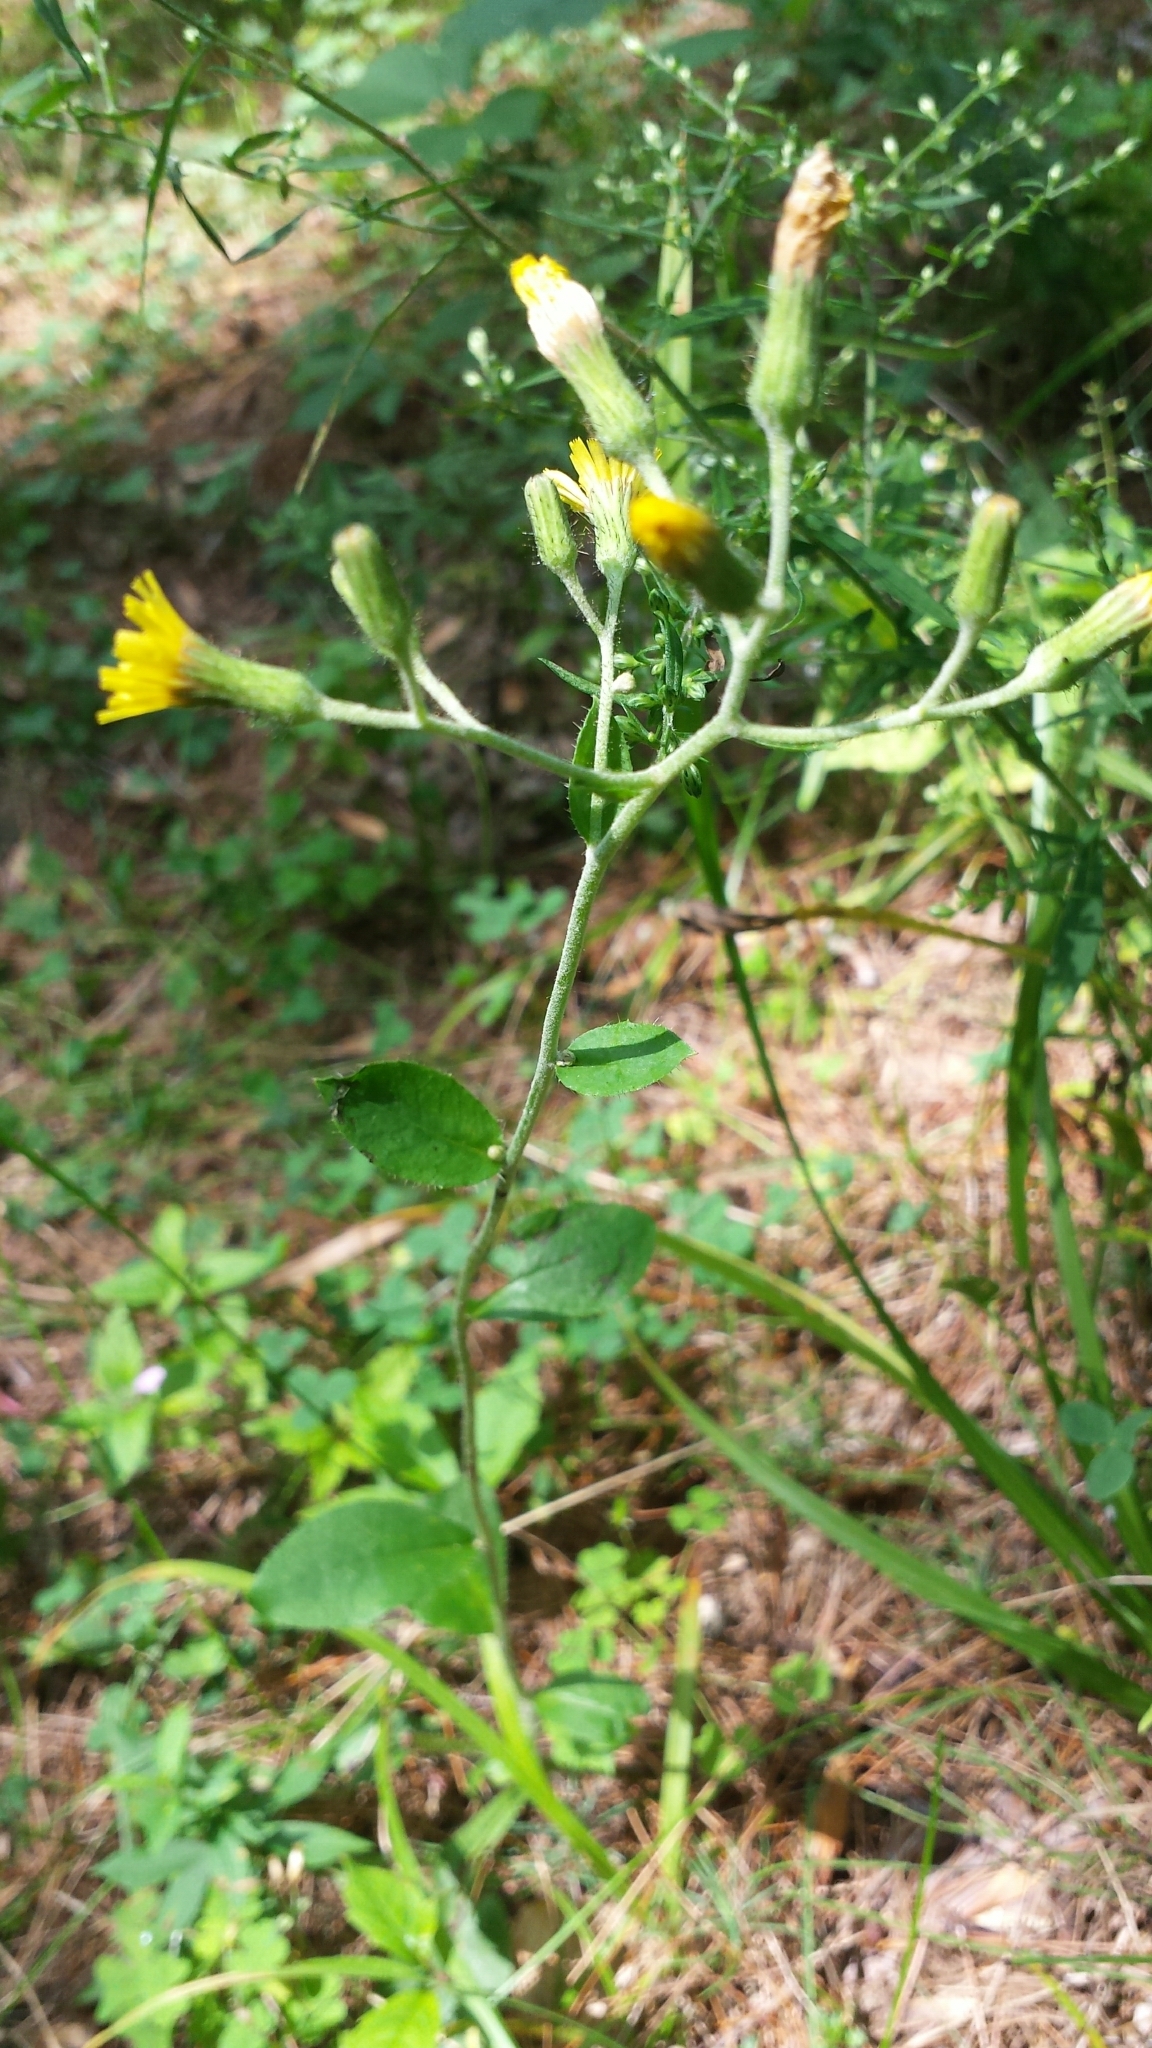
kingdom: Plantae
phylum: Tracheophyta
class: Magnoliopsida
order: Asterales
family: Asteraceae
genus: Hieracium
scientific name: Hieracium scabrum
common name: Rough hawkweed
